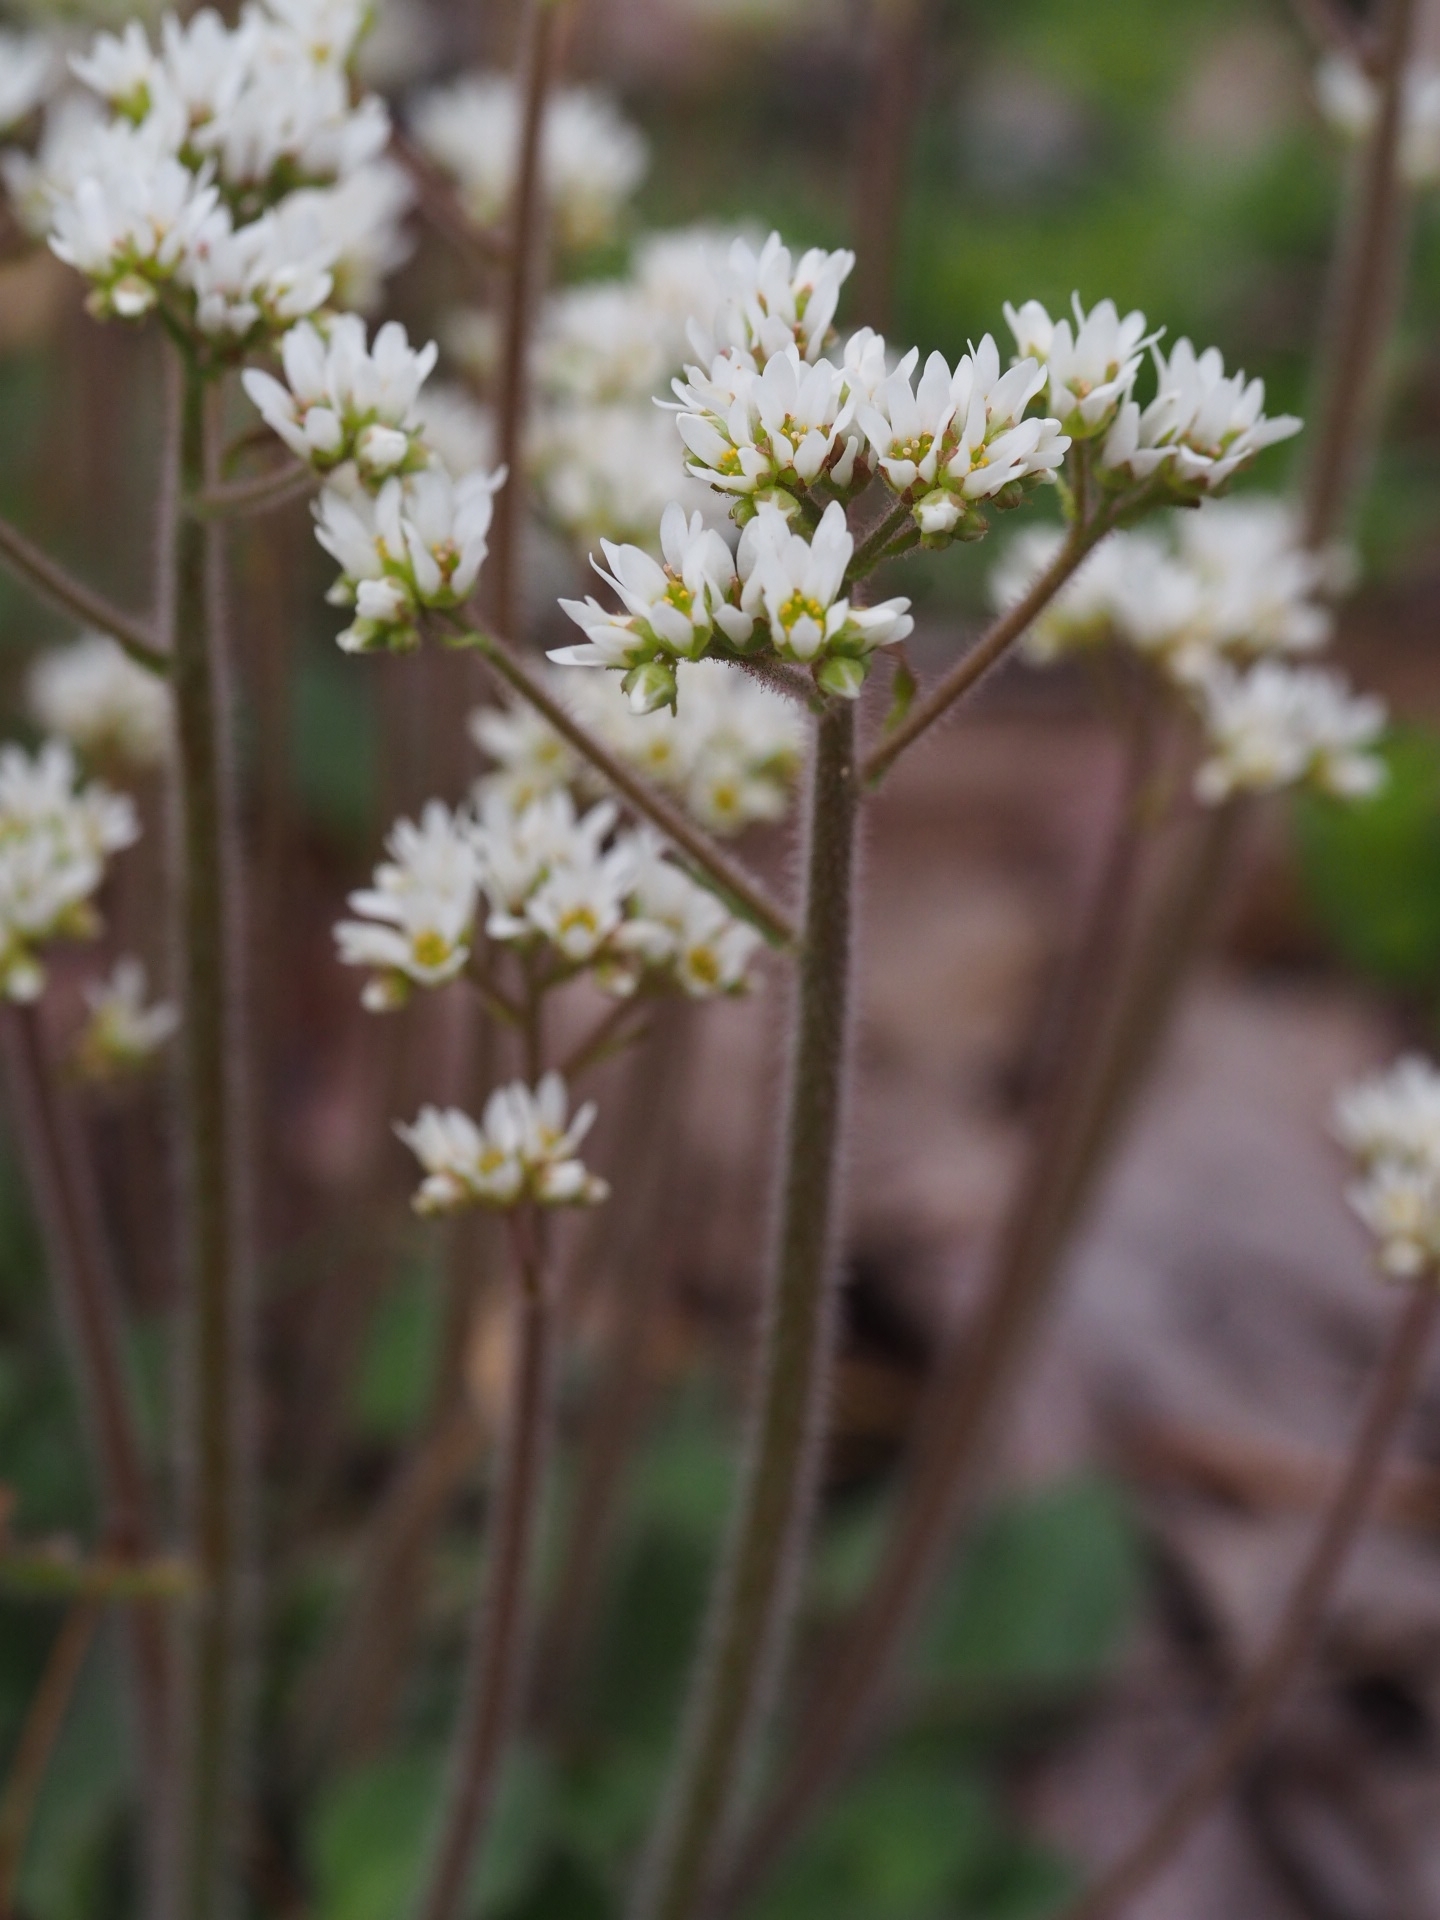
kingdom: Plantae
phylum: Tracheophyta
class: Magnoliopsida
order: Saxifragales
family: Saxifragaceae
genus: Micranthes
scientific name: Micranthes virginiensis
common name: Early saxifrage
